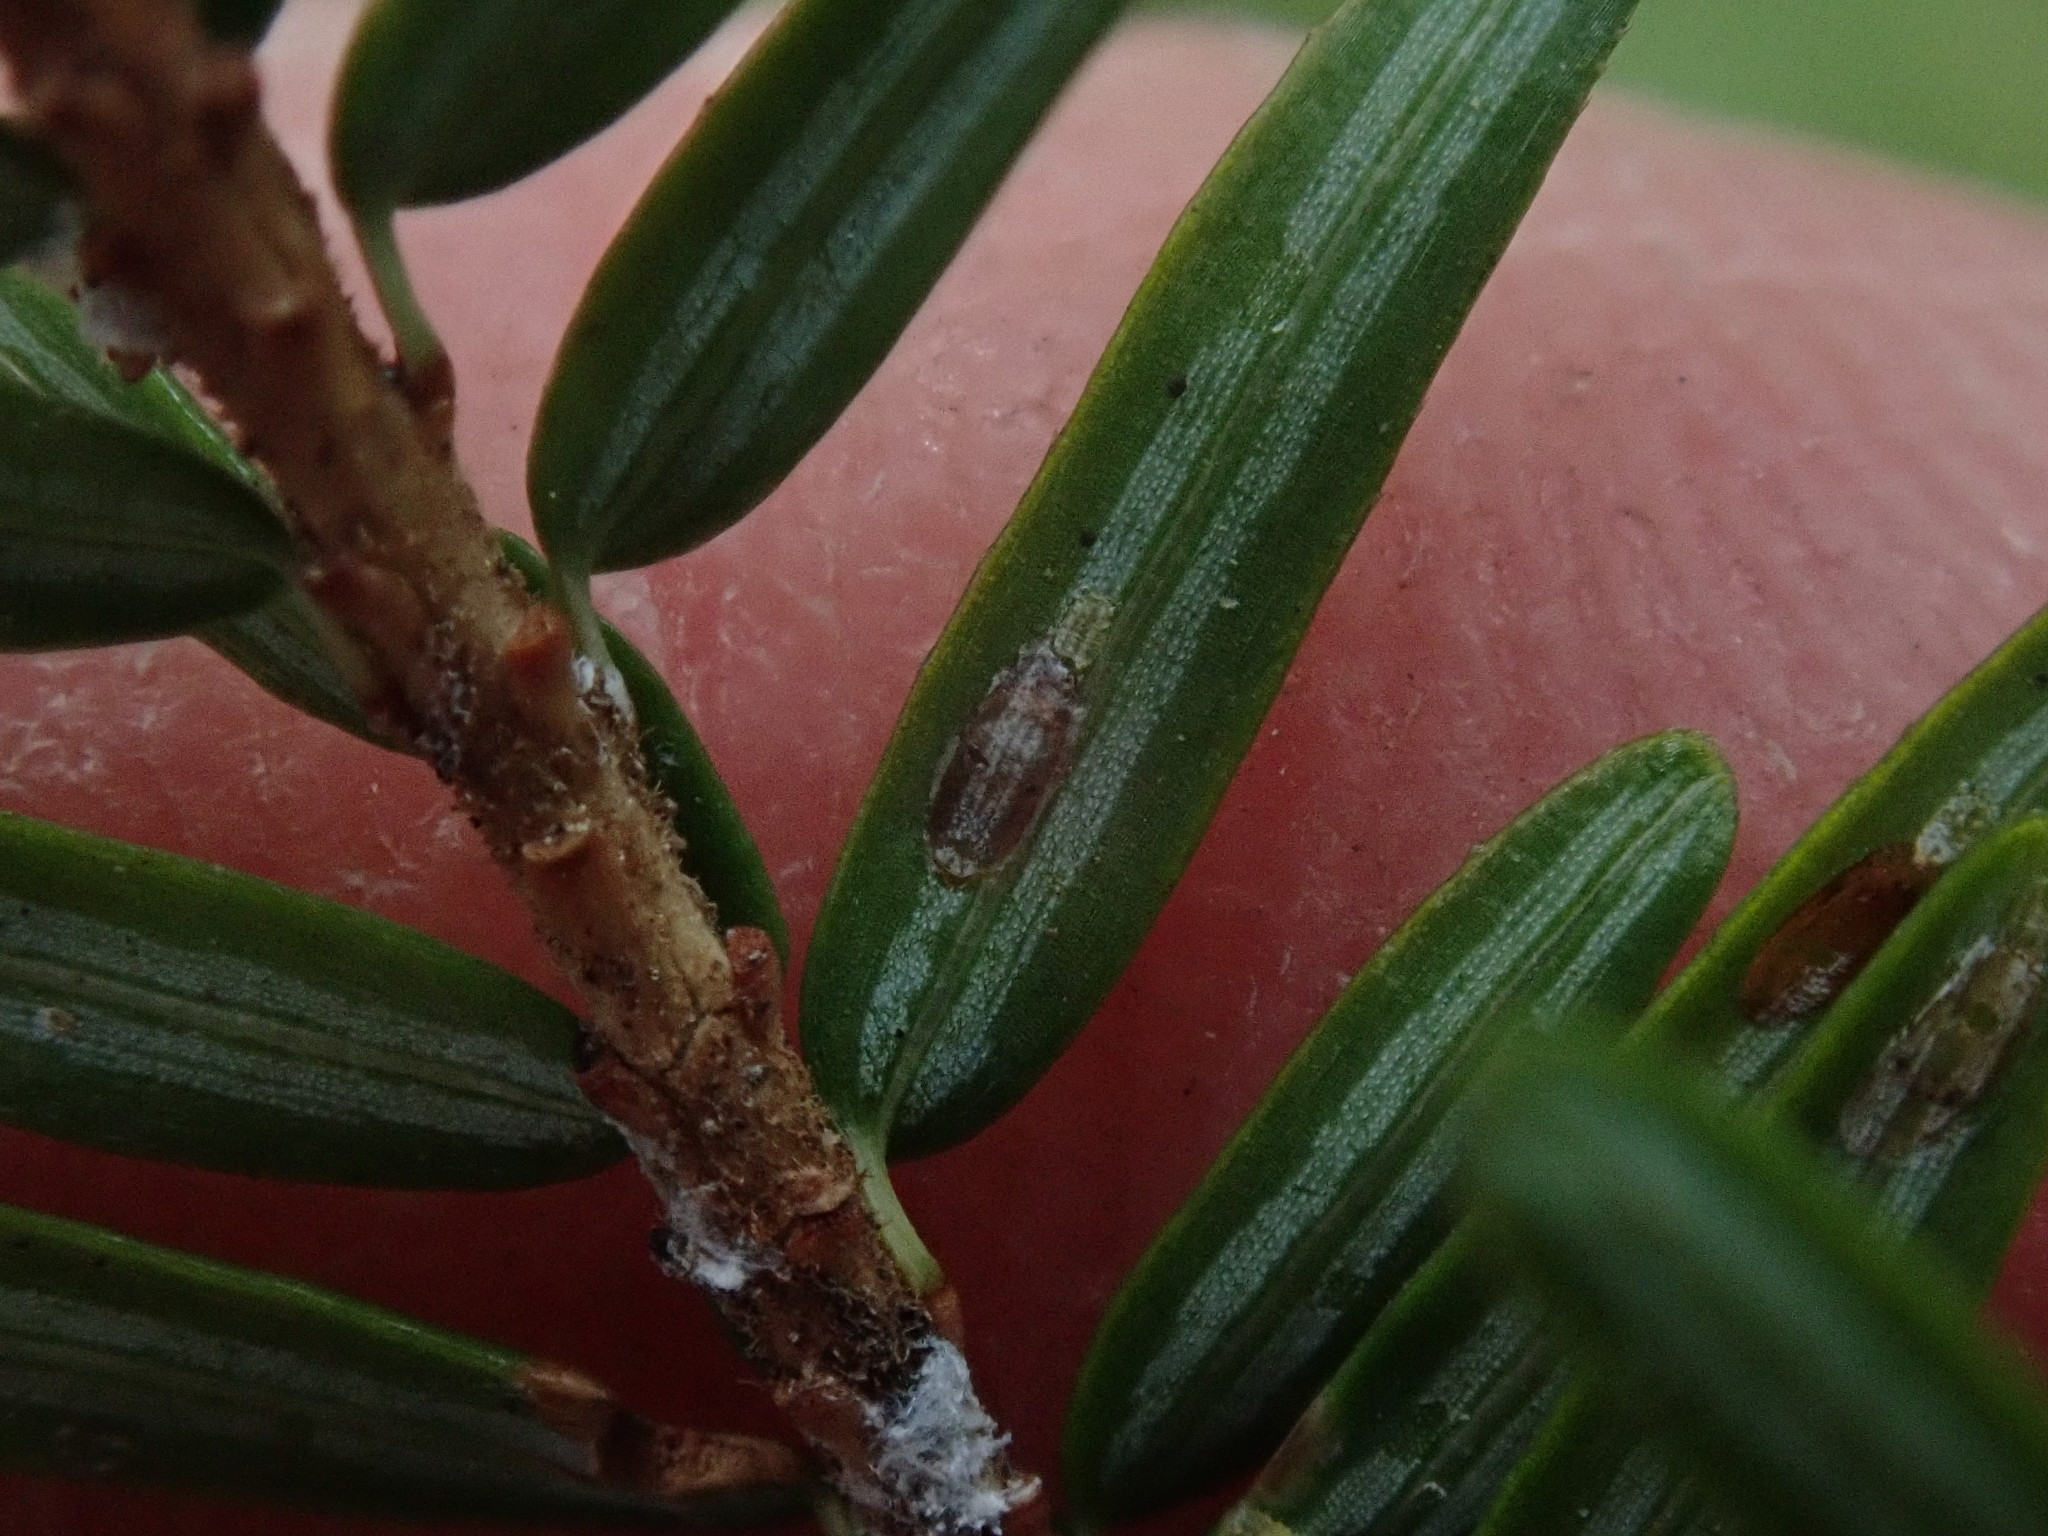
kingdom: Animalia
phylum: Arthropoda
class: Insecta
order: Hemiptera
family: Diaspididae
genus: Fiorinia
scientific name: Fiorinia externa
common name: Elongate hemlock scale
